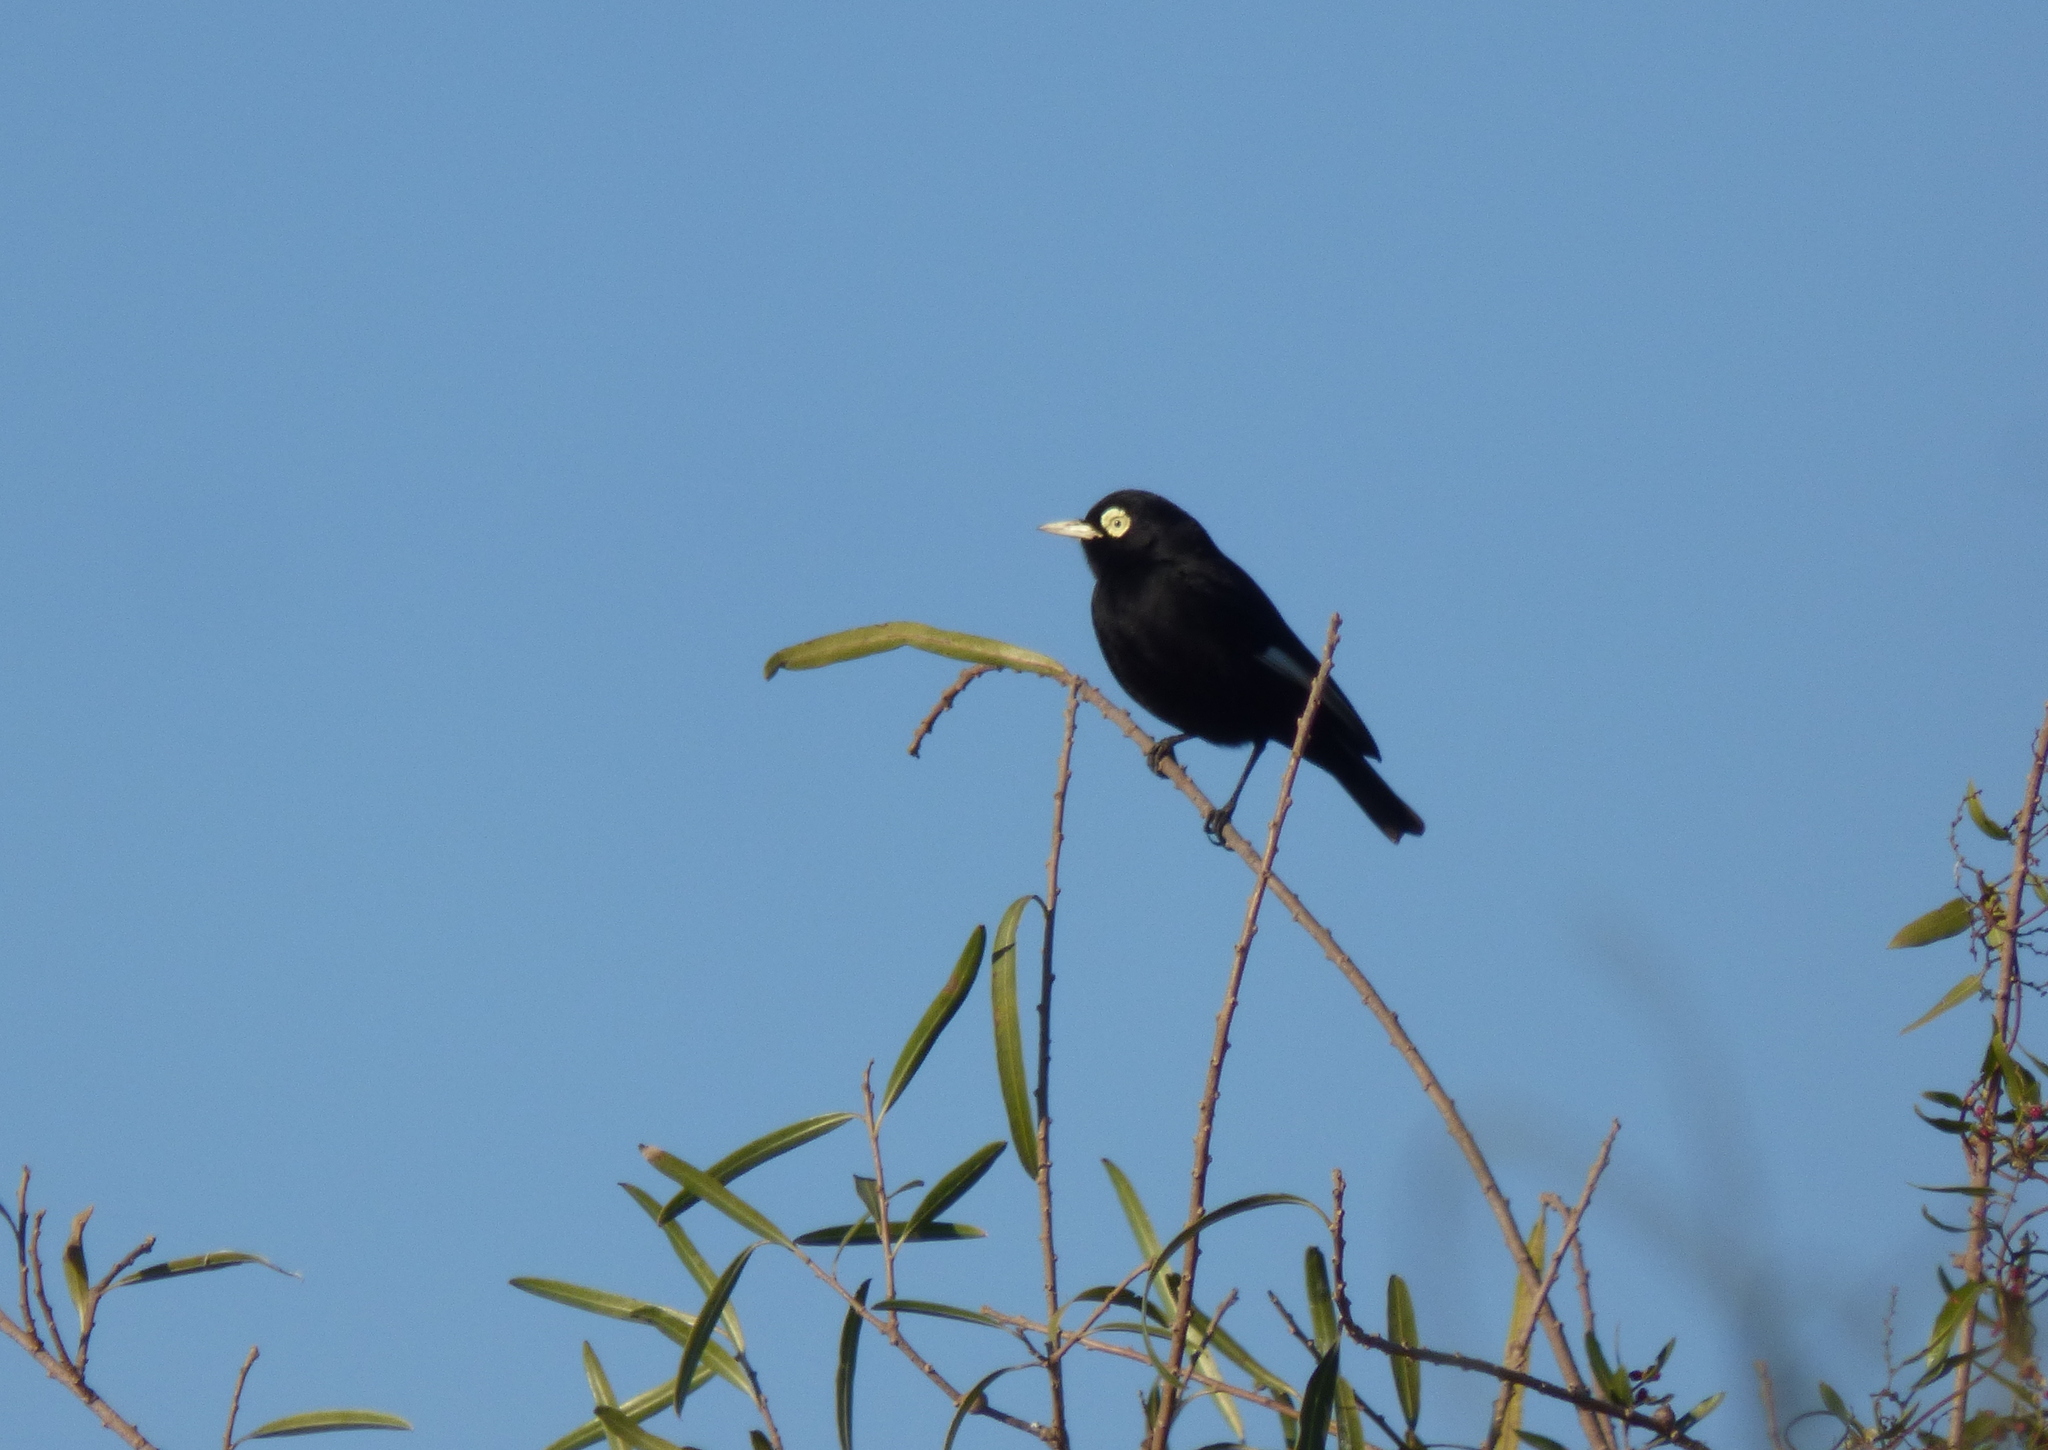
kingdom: Animalia
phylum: Chordata
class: Aves
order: Passeriformes
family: Tyrannidae
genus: Hymenops
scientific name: Hymenops perspicillatus
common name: Spectacled tyrant
